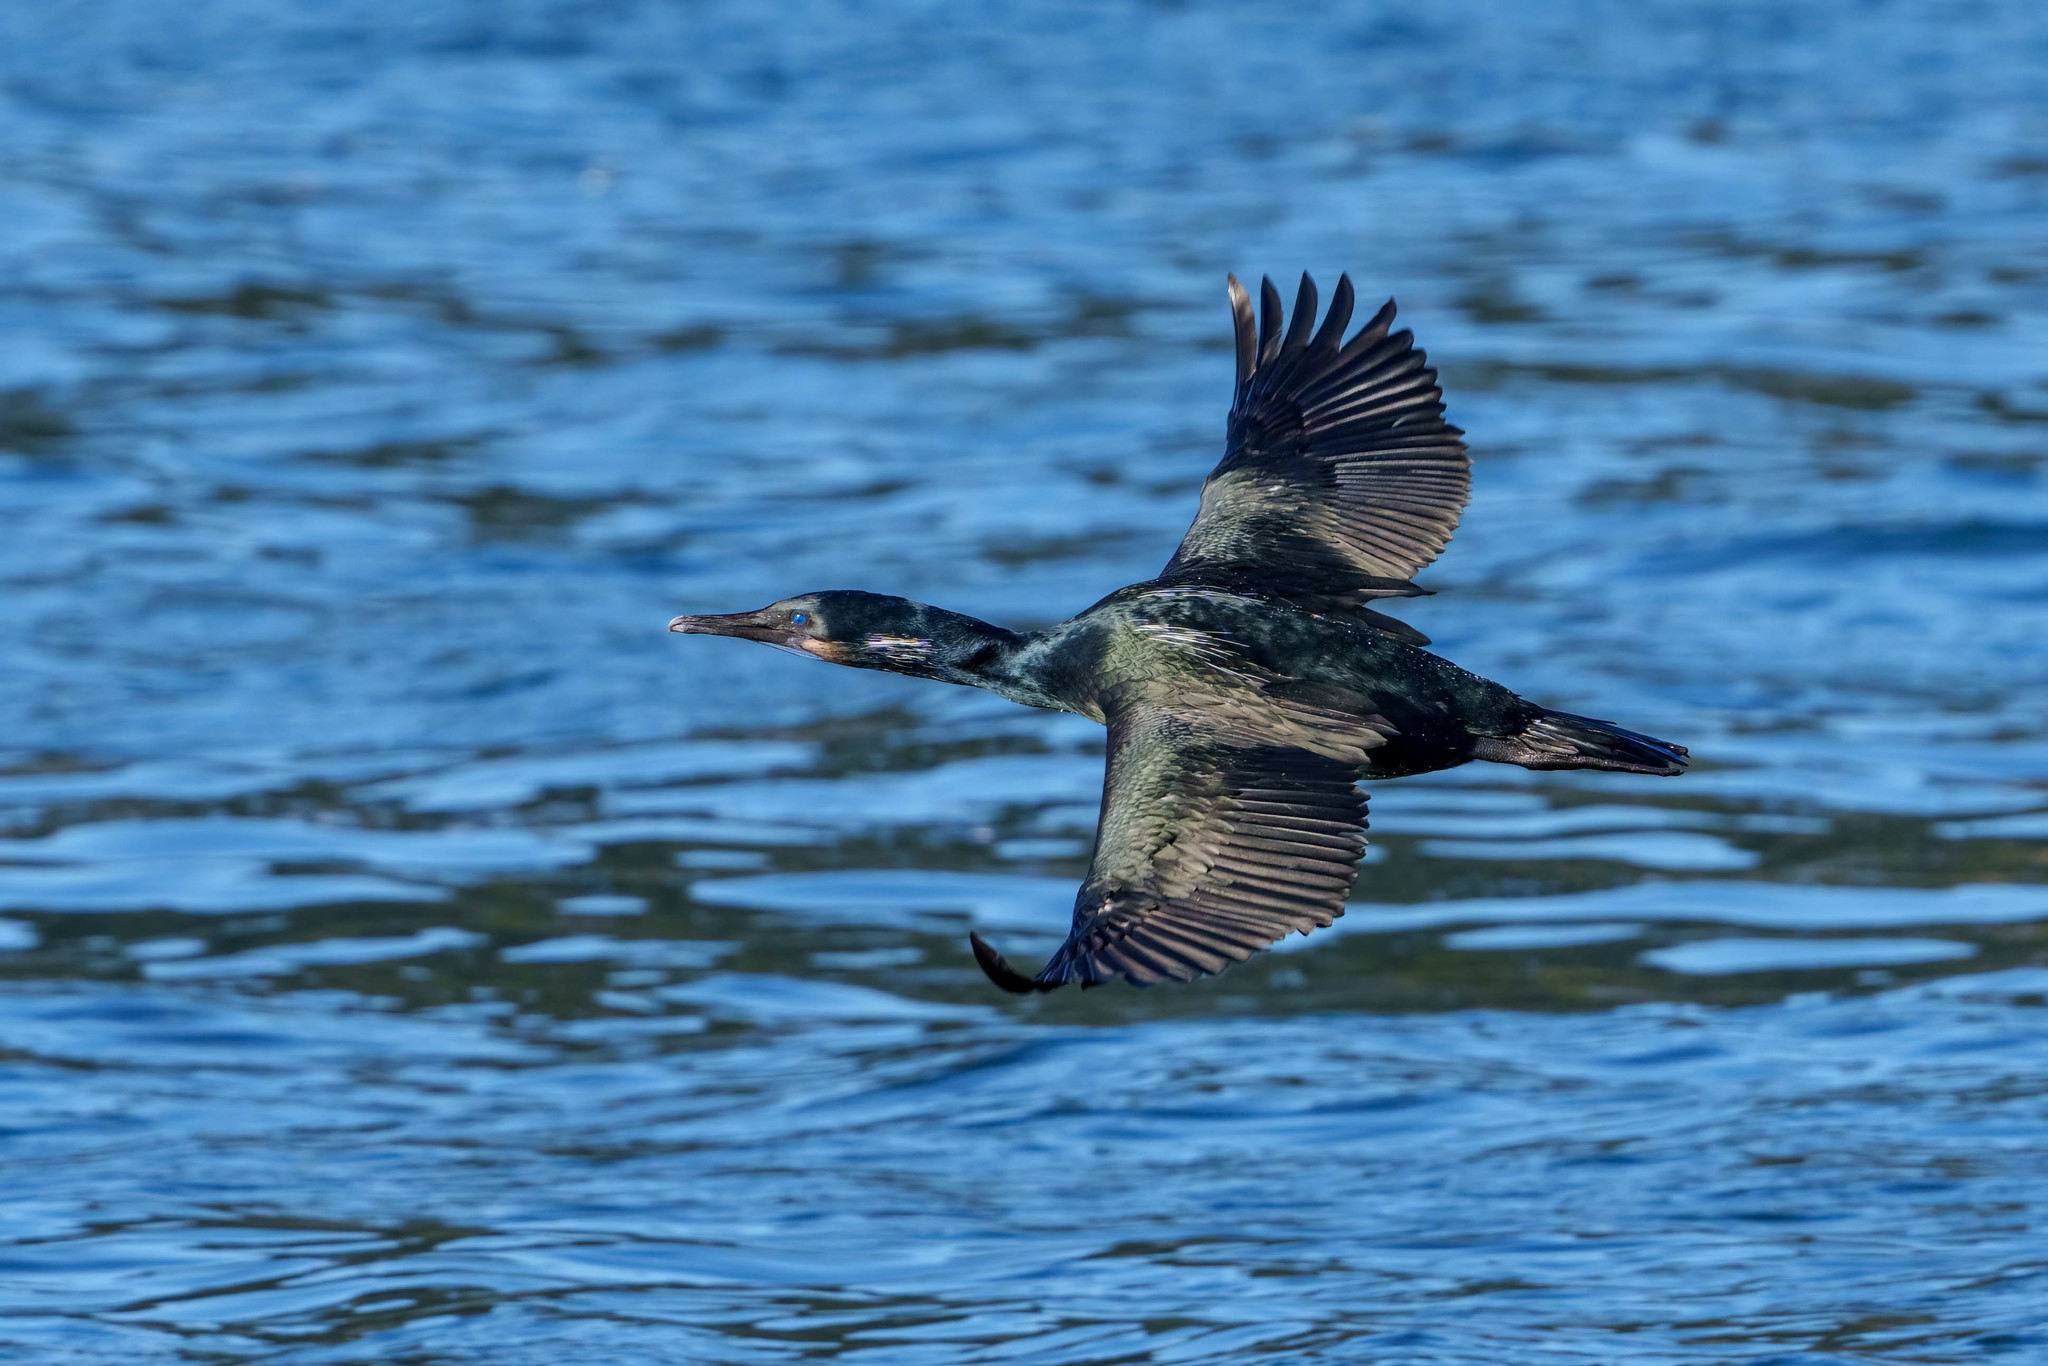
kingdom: Animalia
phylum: Chordata
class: Aves
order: Suliformes
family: Phalacrocoracidae
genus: Urile
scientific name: Urile penicillatus
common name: Brandt's cormorant
